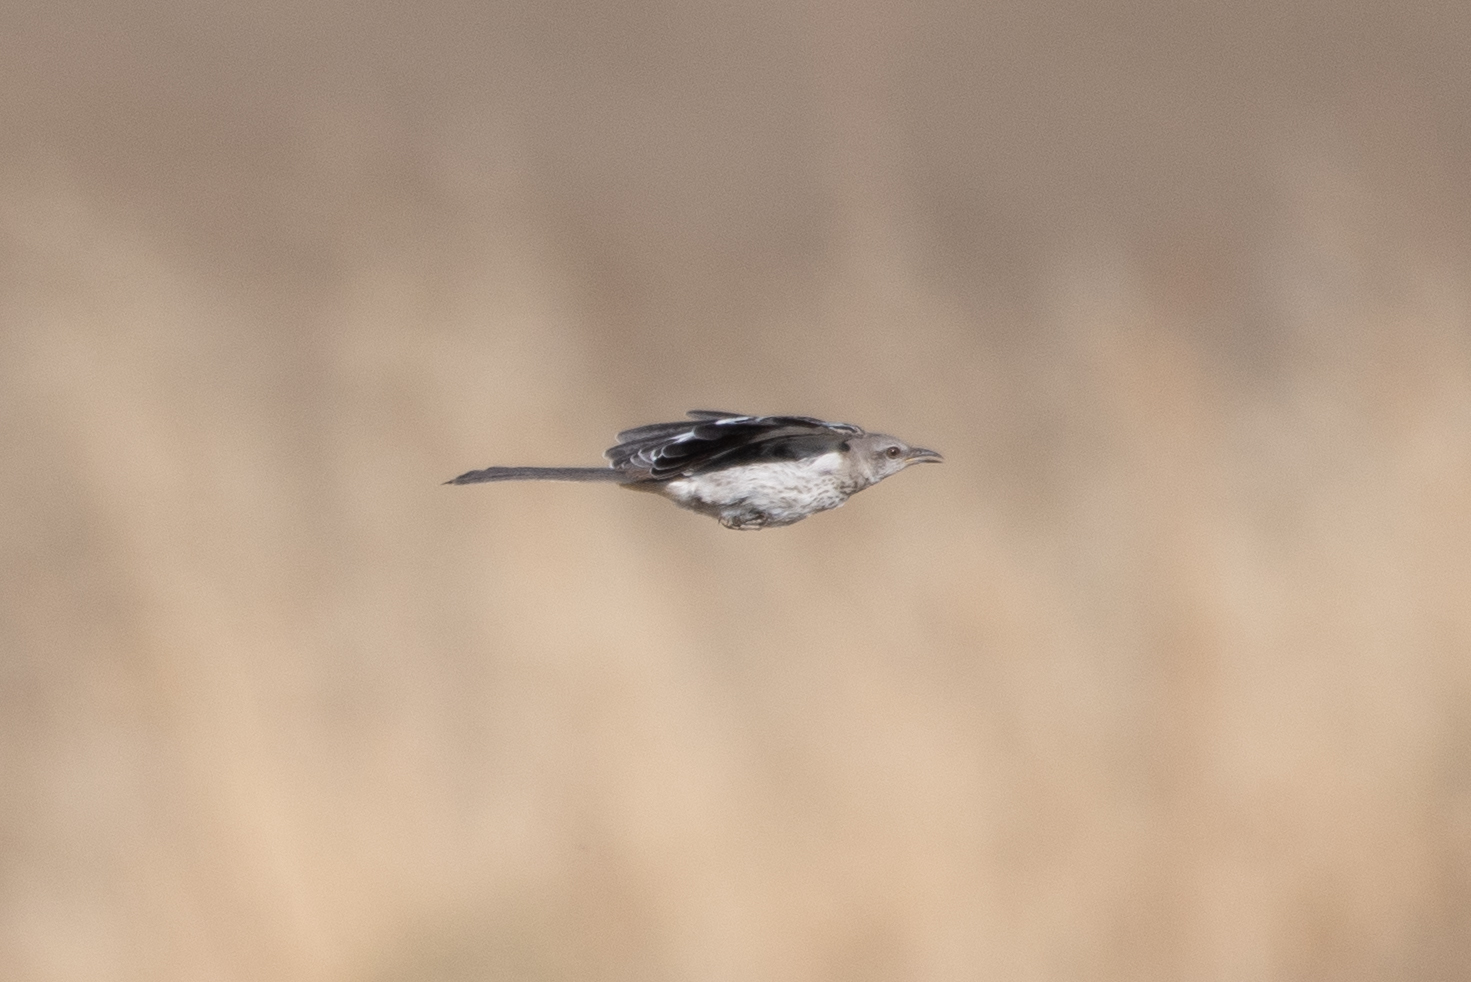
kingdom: Animalia
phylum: Chordata
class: Aves
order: Passeriformes
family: Mimidae
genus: Mimus
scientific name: Mimus polyglottos
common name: Northern mockingbird
